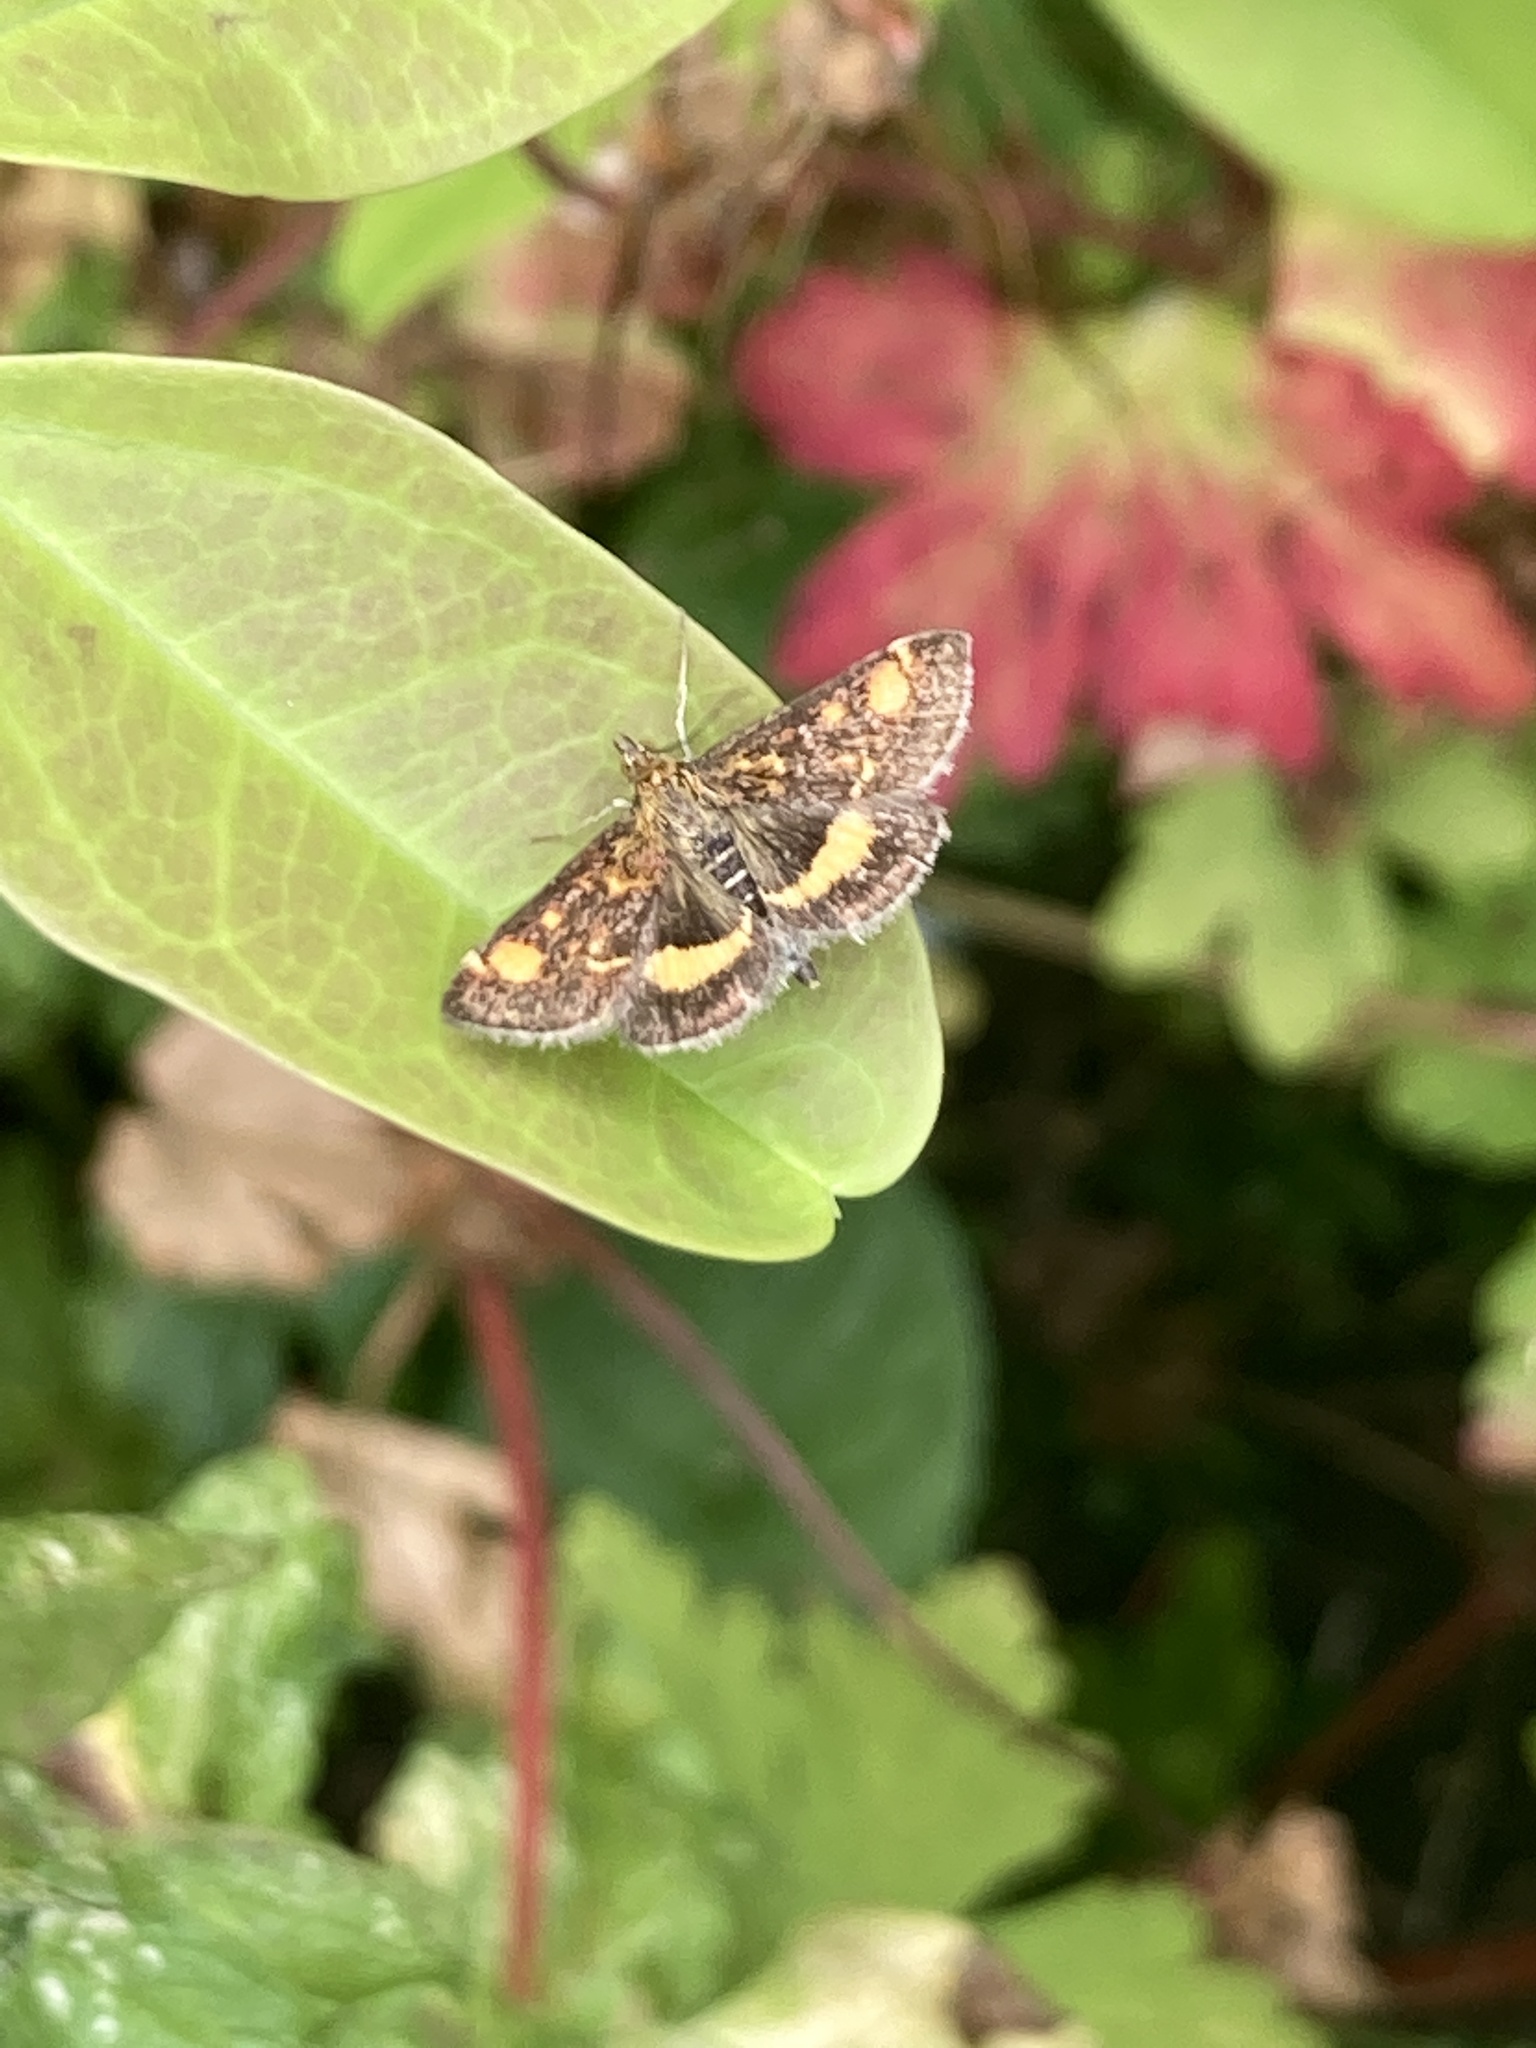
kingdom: Animalia
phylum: Arthropoda
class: Insecta
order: Lepidoptera
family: Crambidae
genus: Pyrausta
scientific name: Pyrausta aurata
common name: Small purple & gold
